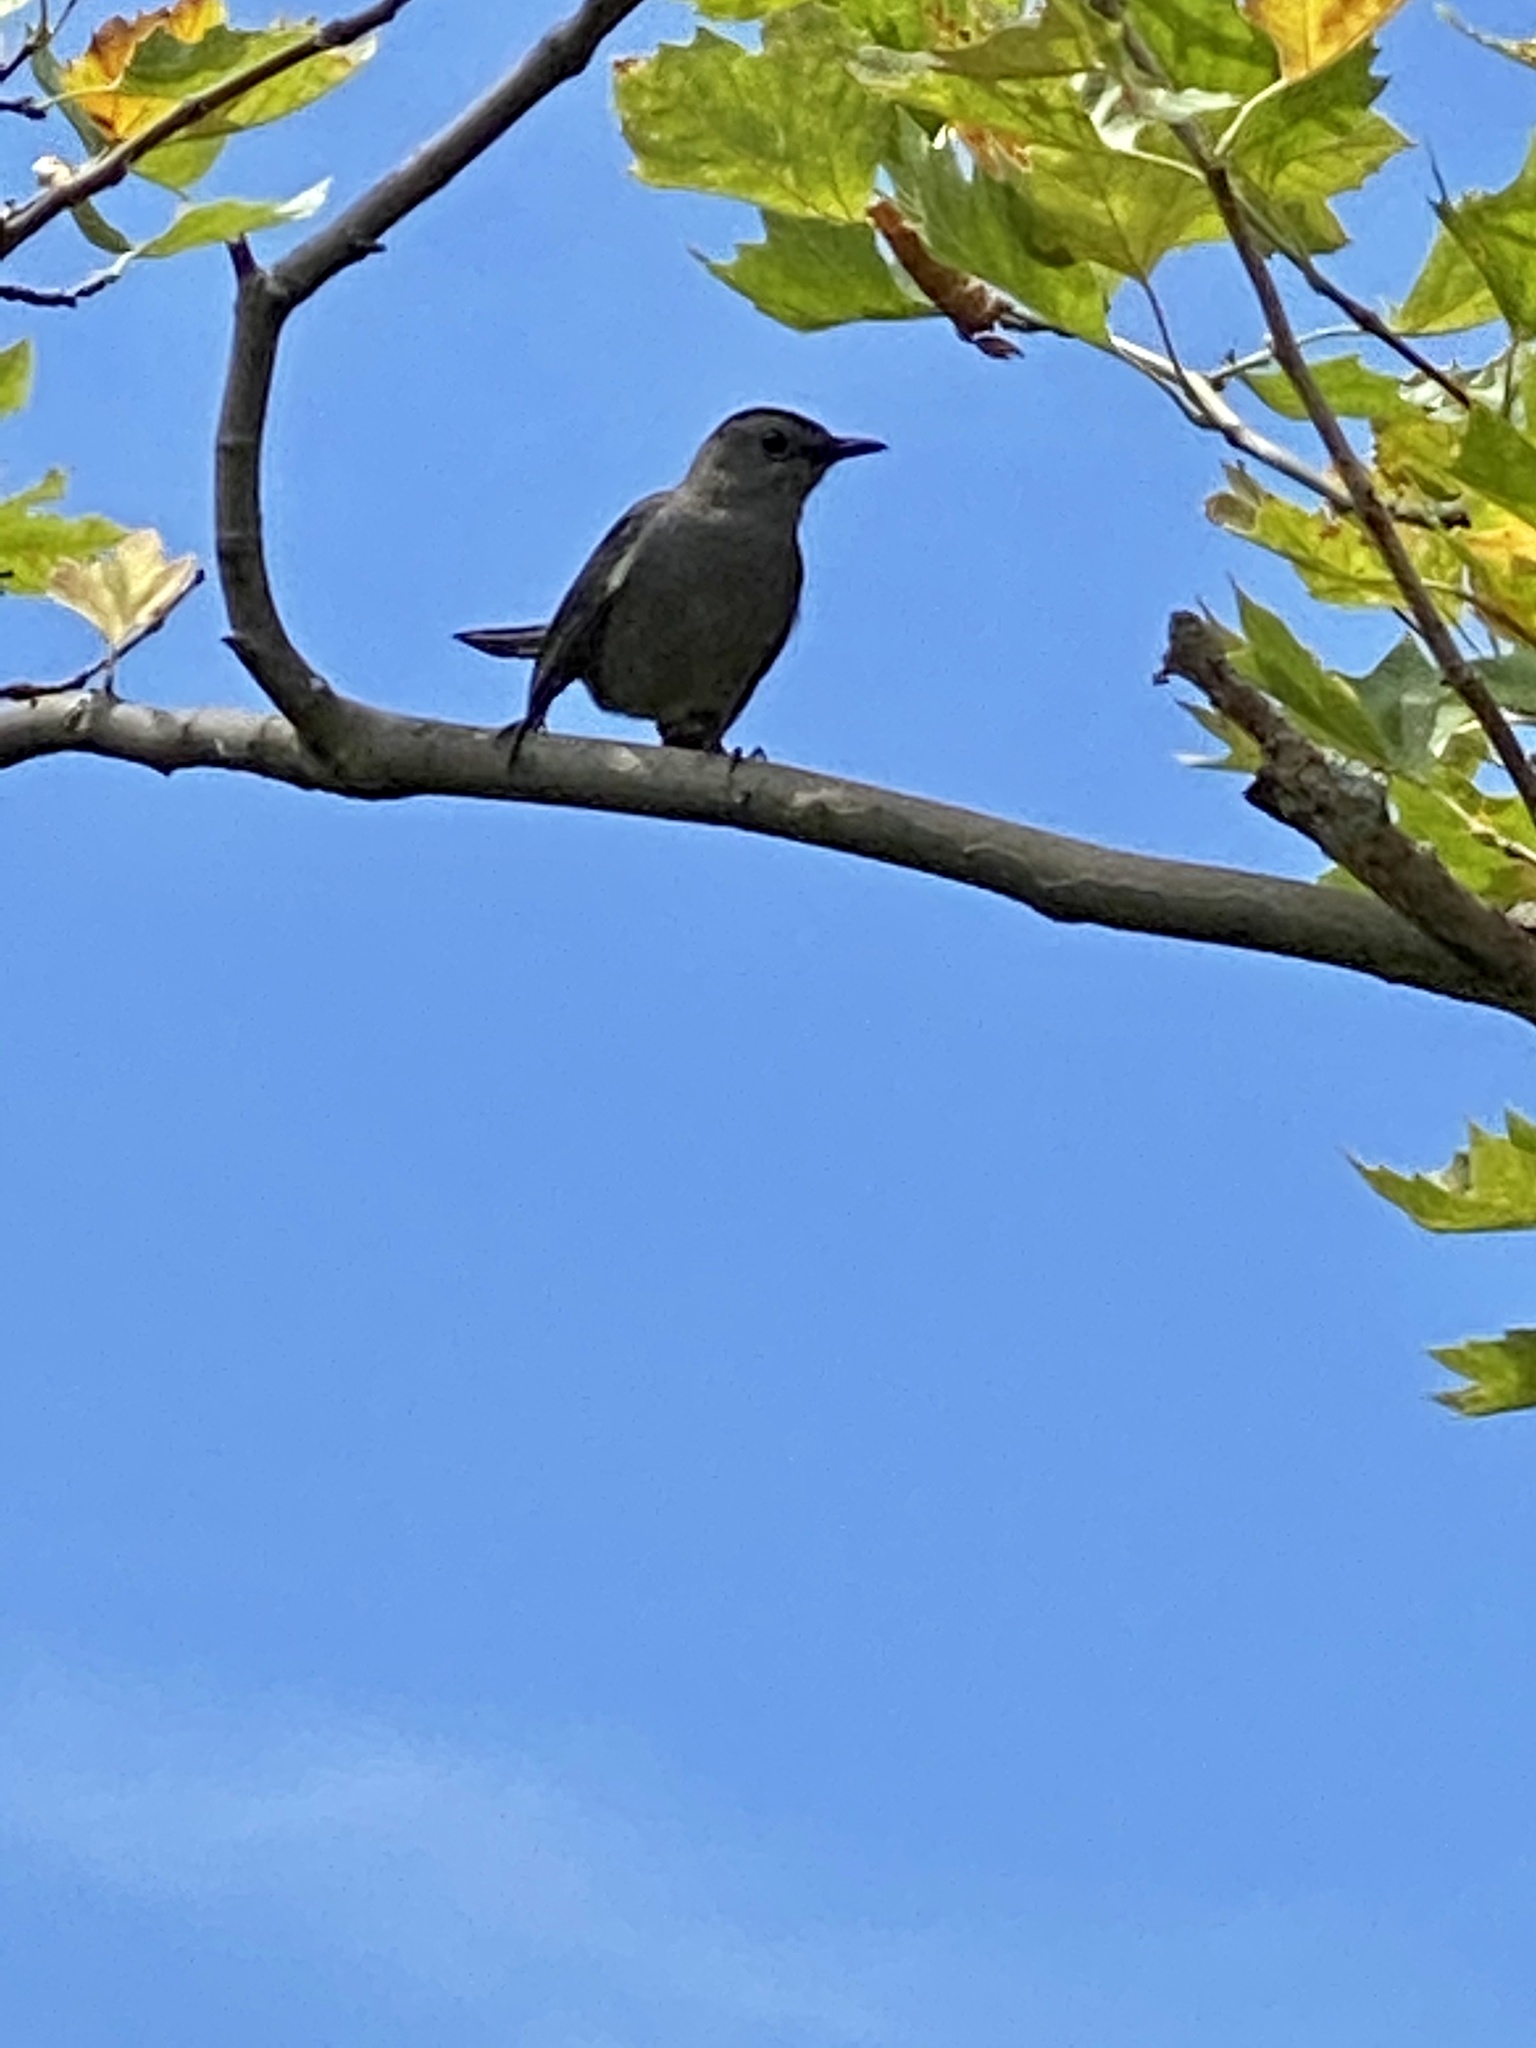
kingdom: Animalia
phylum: Chordata
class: Aves
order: Passeriformes
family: Mimidae
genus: Dumetella
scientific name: Dumetella carolinensis
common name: Gray catbird
